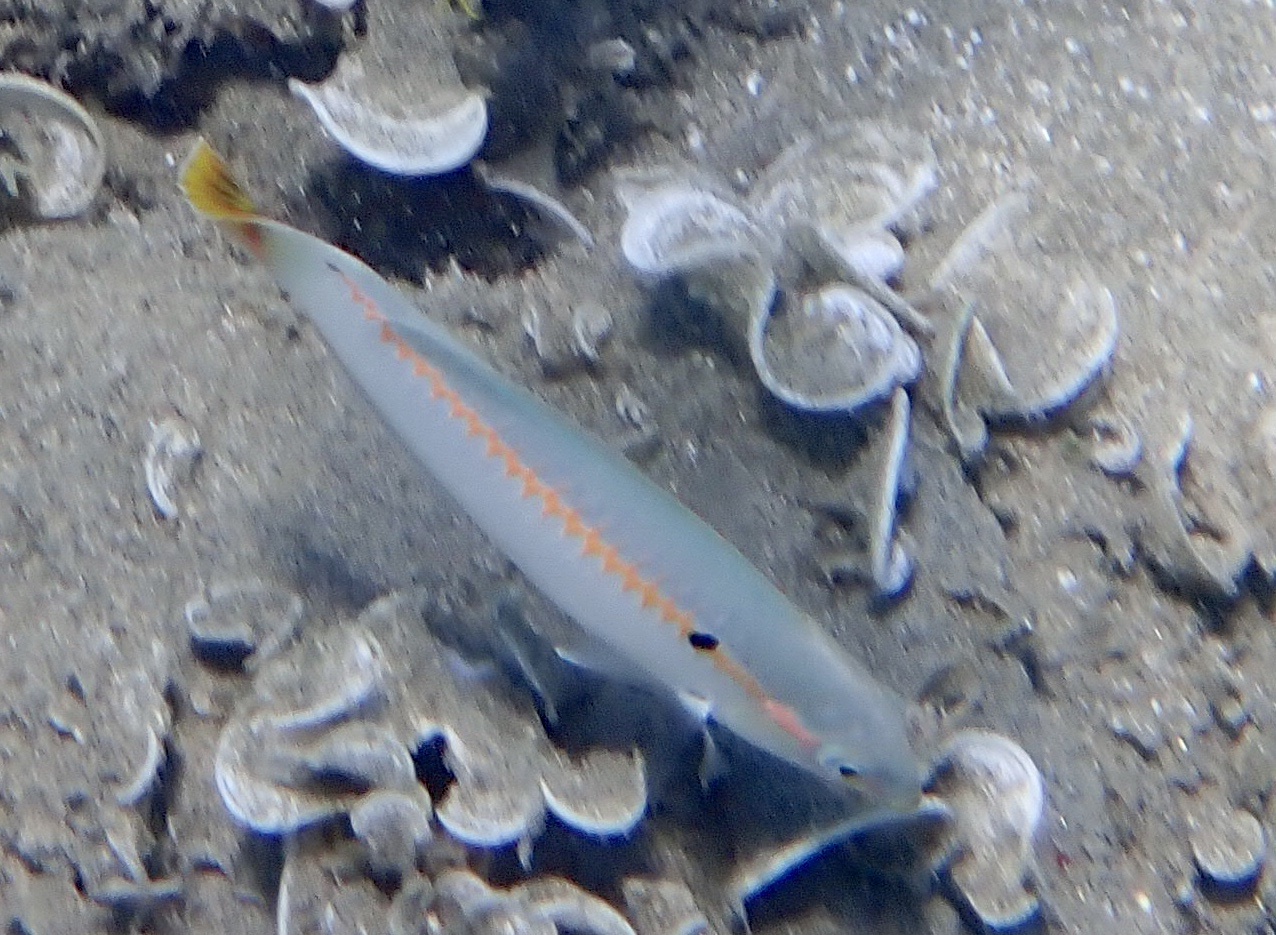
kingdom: Animalia
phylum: Chordata
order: Perciformes
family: Labridae
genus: Halichoeres
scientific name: Halichoeres scapularis
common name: Brownbanded wrasse
